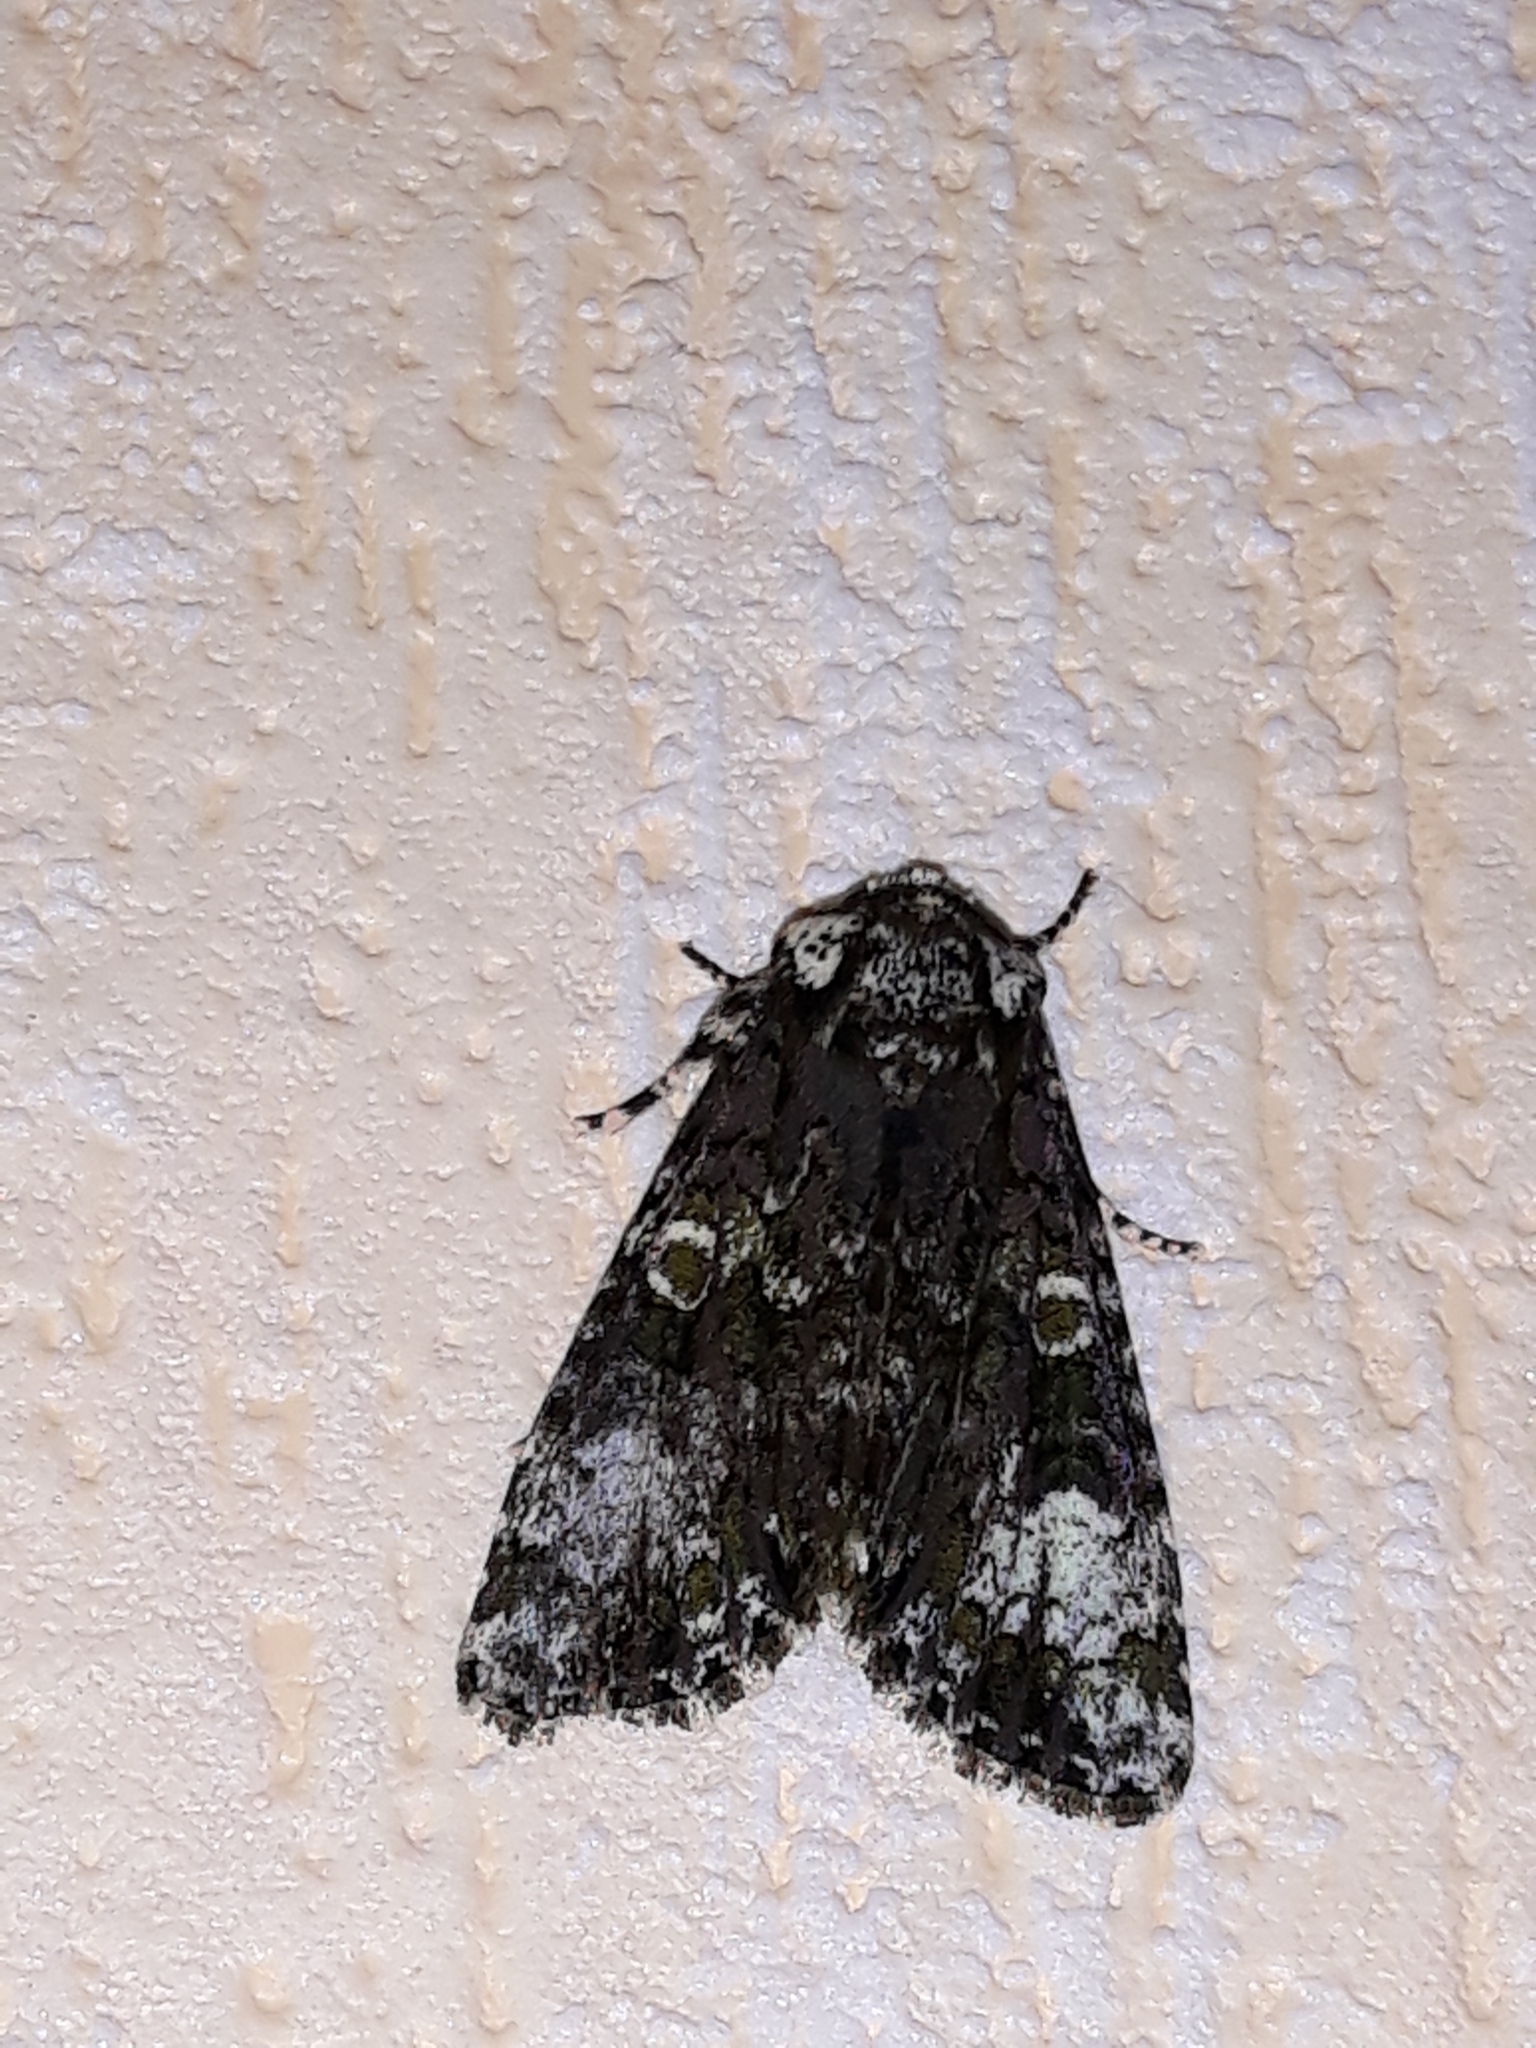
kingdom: Animalia
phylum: Arthropoda
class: Insecta
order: Lepidoptera
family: Noctuidae
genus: Craniophora
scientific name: Craniophora ligustri
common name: Coronet
